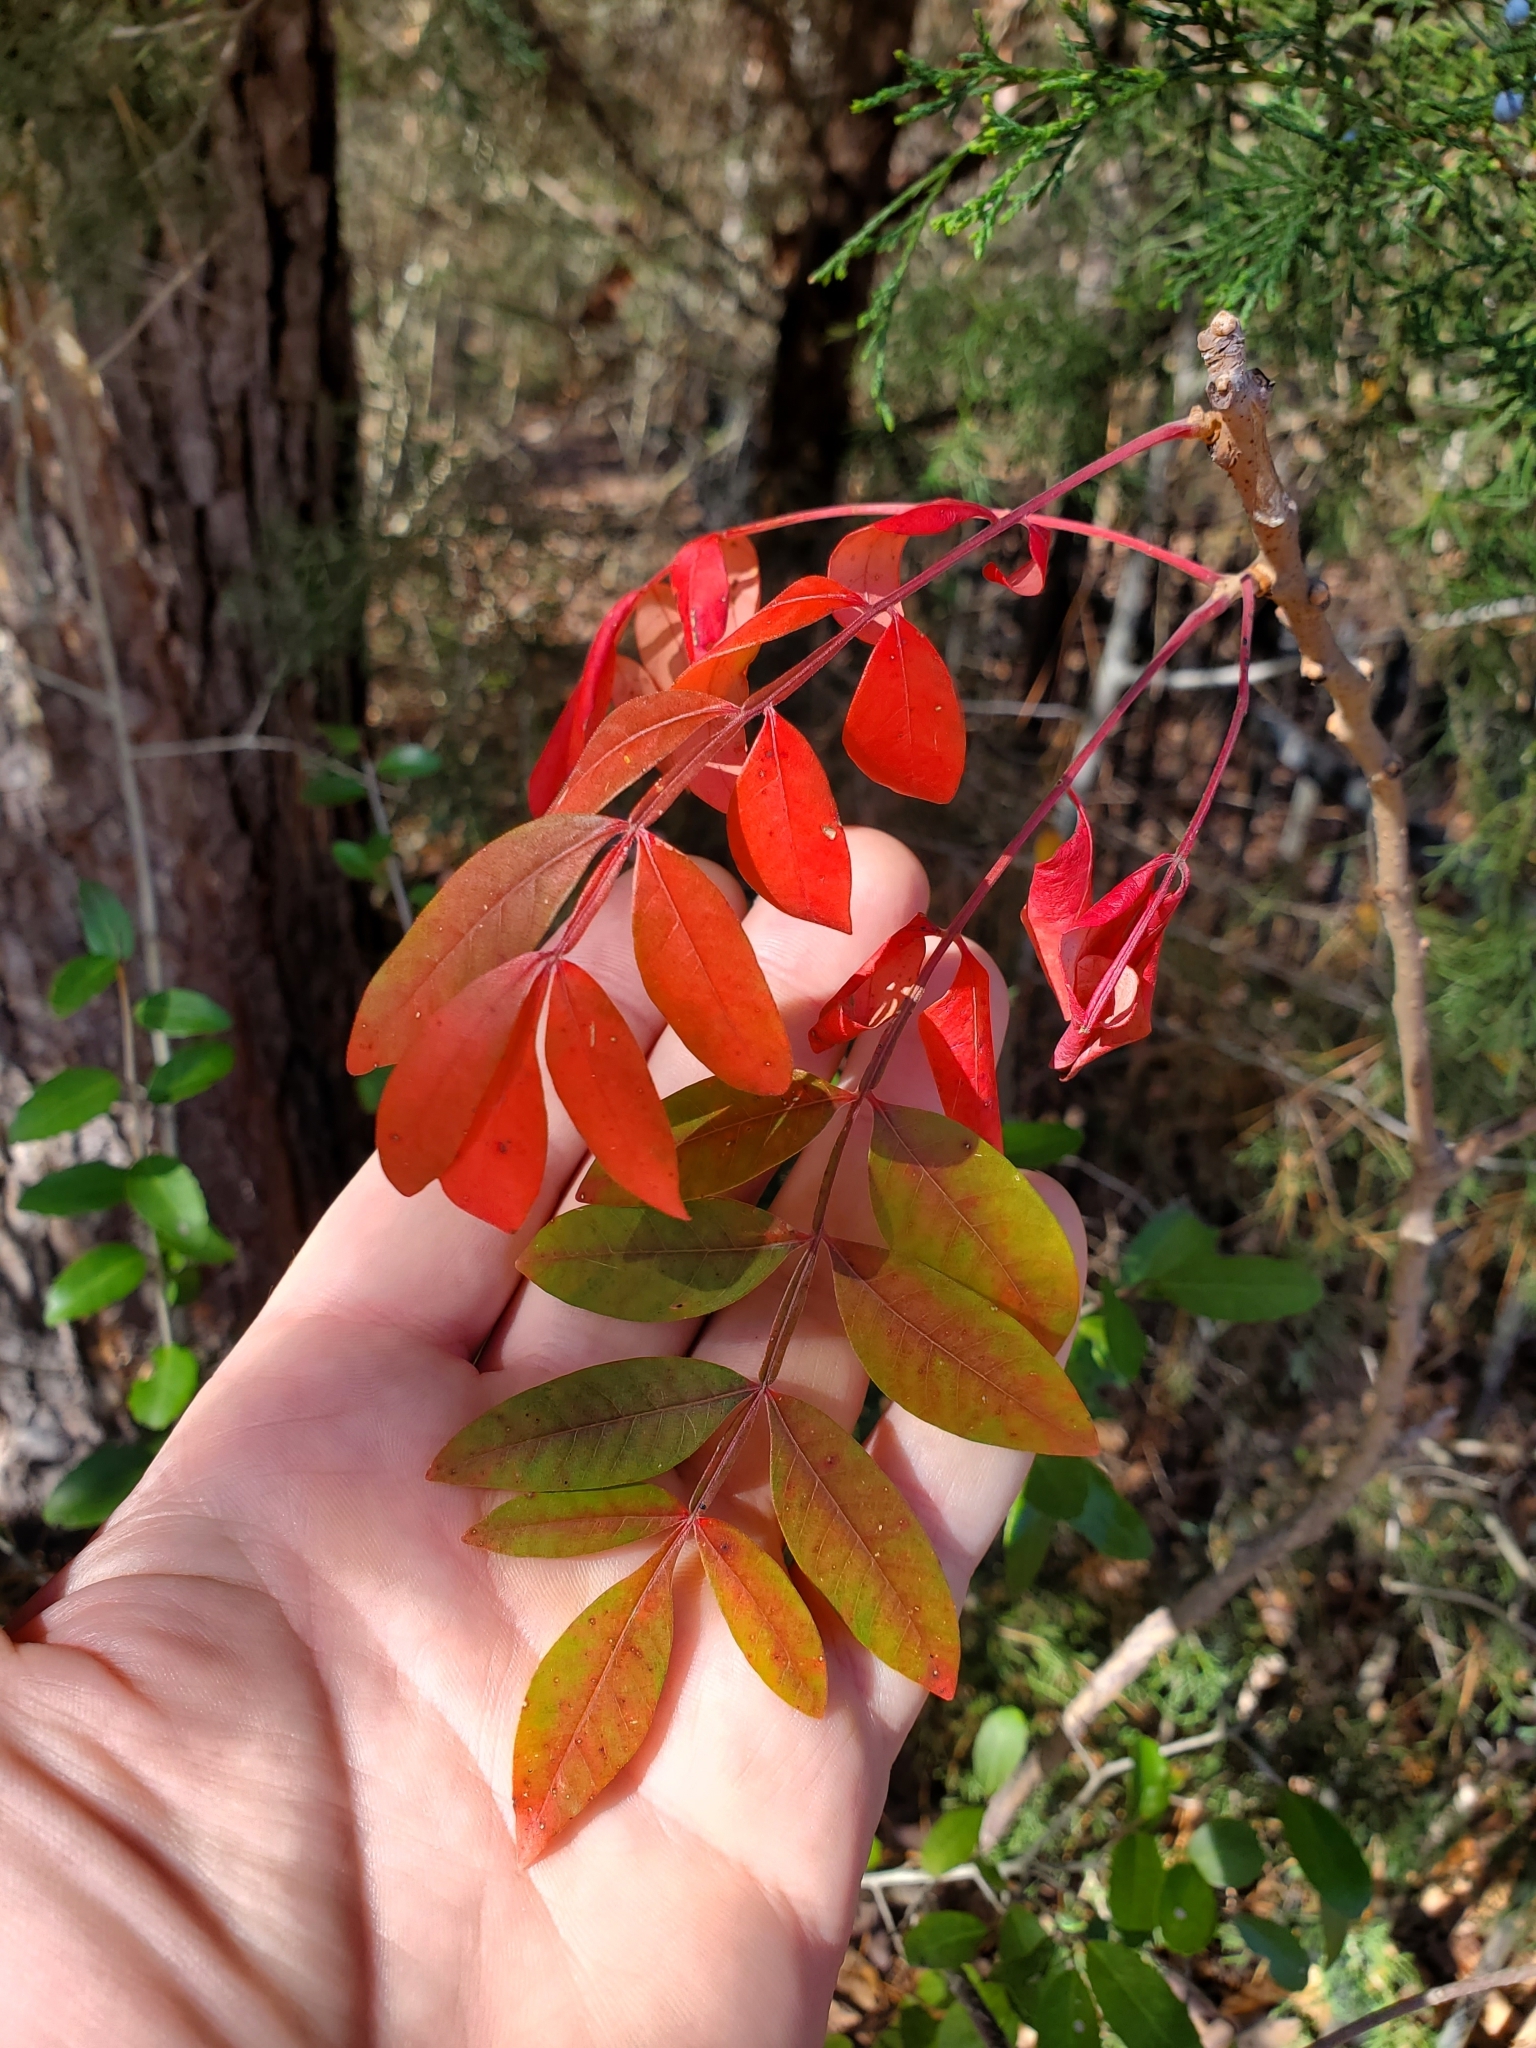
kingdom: Plantae
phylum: Tracheophyta
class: Magnoliopsida
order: Sapindales
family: Anacardiaceae
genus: Rhus
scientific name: Rhus copallina
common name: Shining sumac
